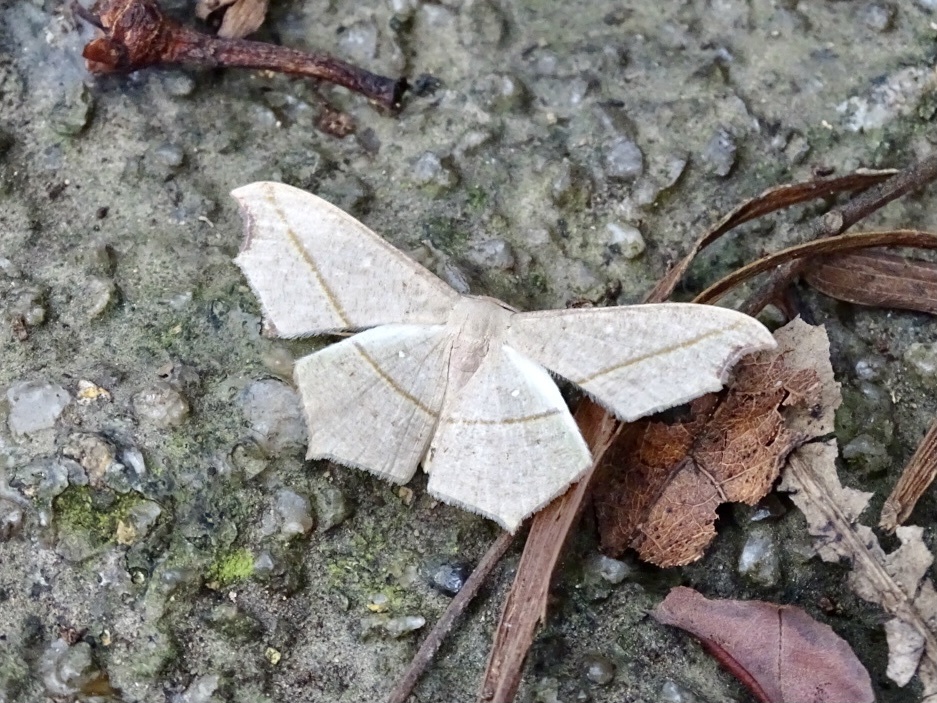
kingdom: Animalia
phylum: Arthropoda
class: Insecta
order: Lepidoptera
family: Geometridae
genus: Traminda
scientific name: Traminda aventiaria
